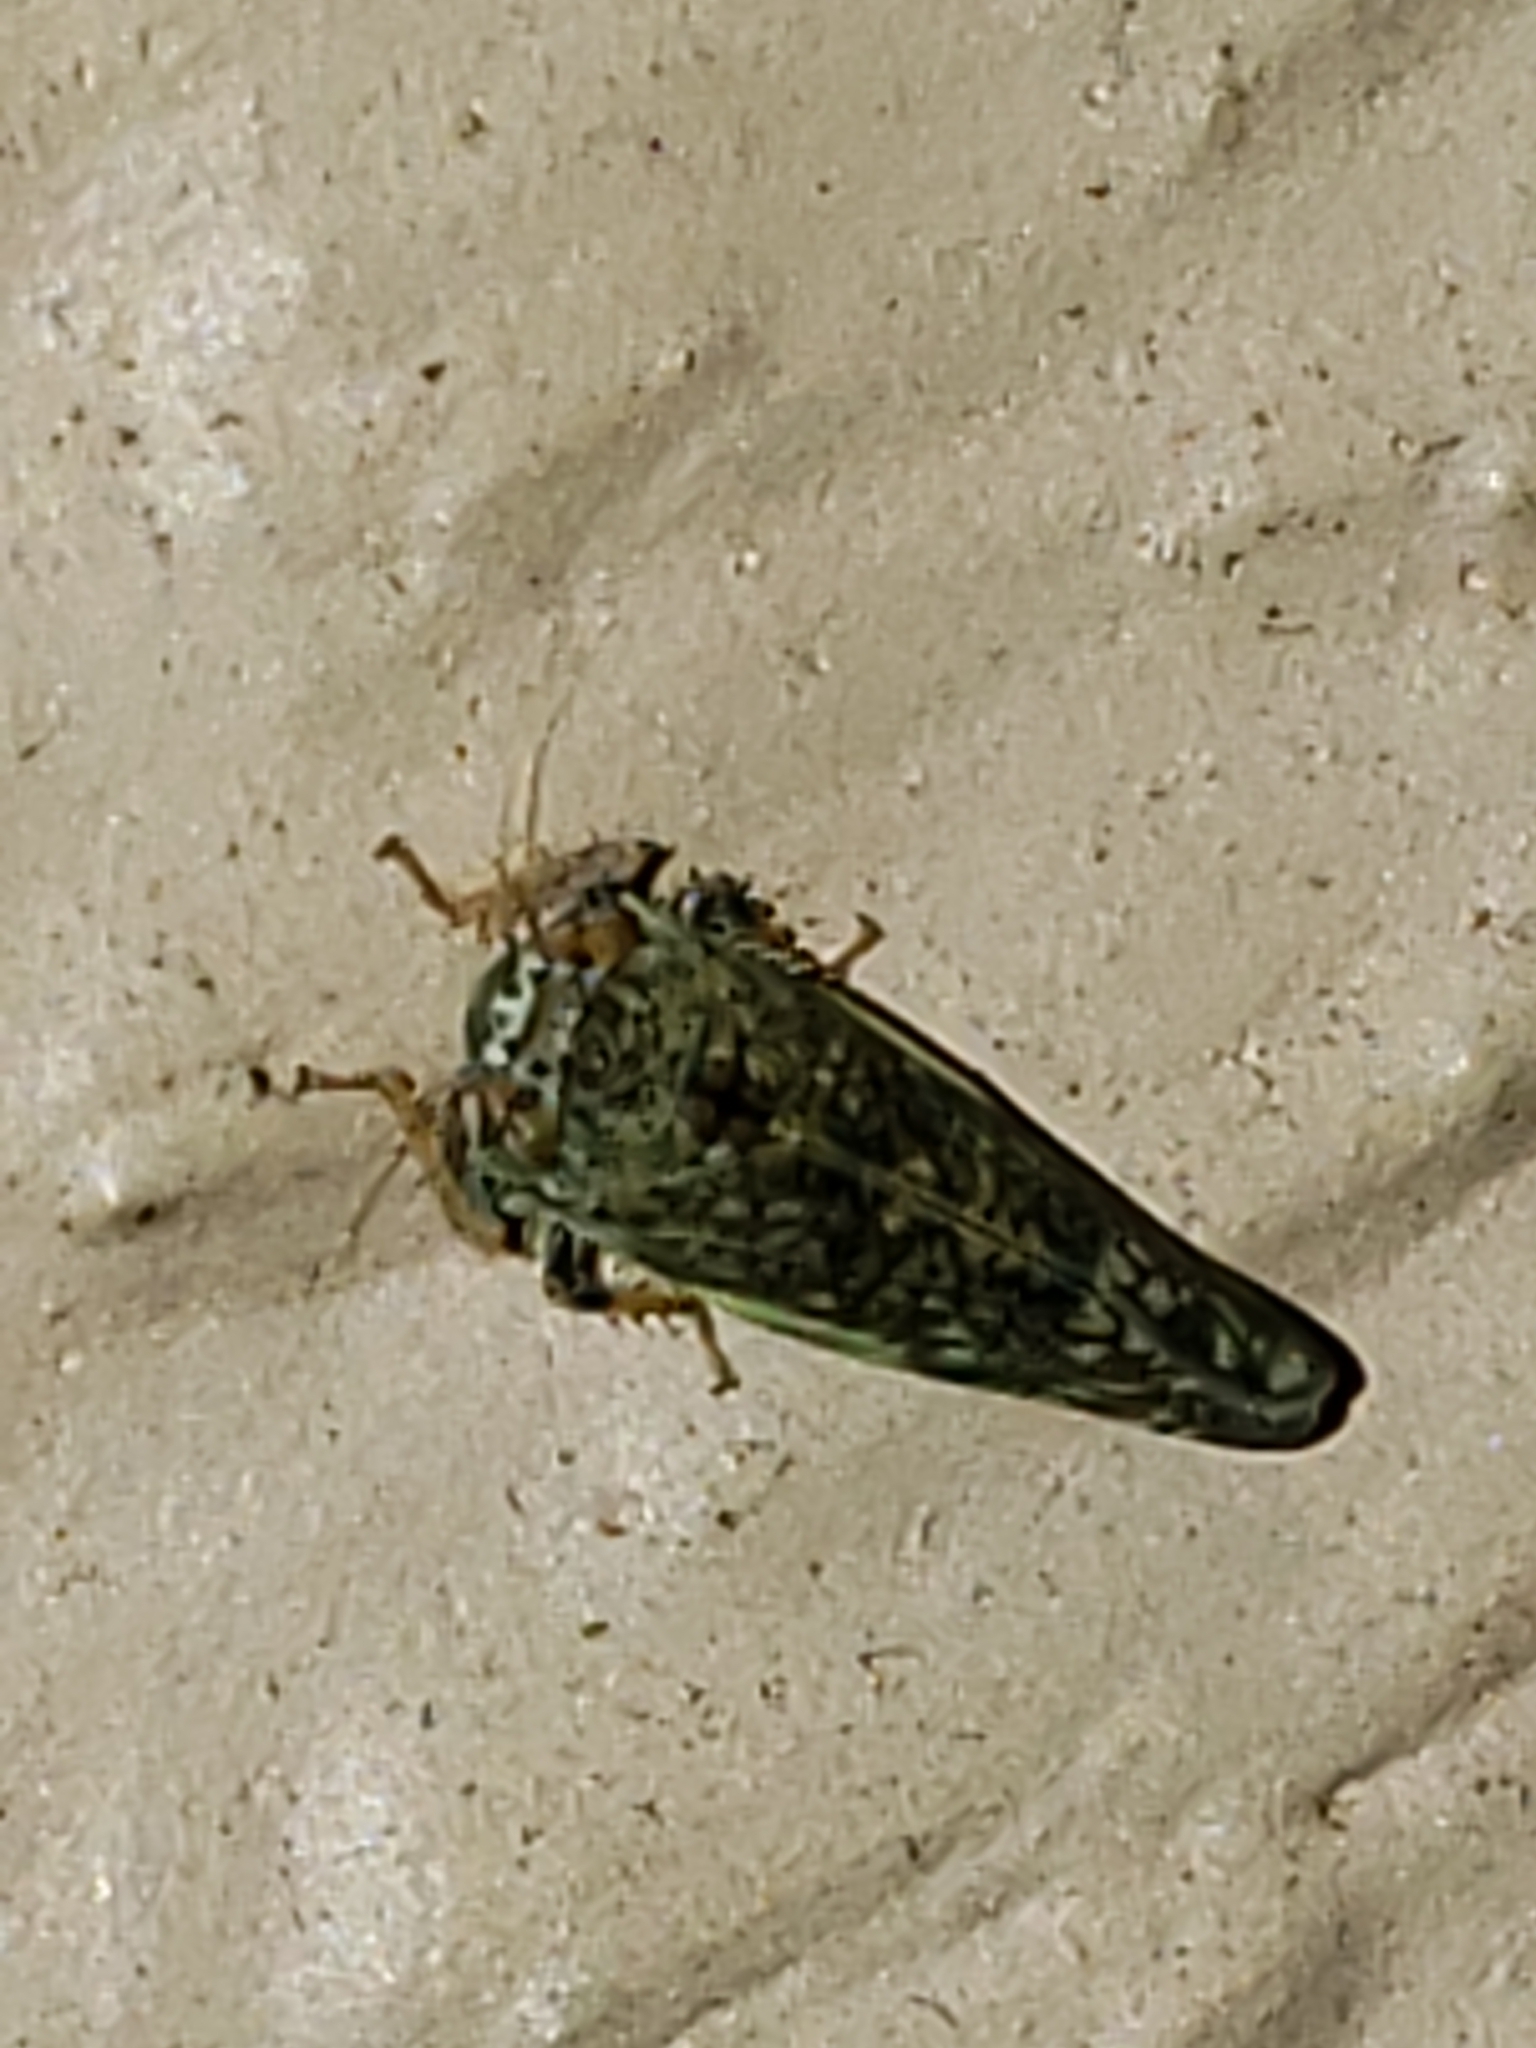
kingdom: Animalia
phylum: Arthropoda
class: Insecta
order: Hemiptera
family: Cicadellidae
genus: Orientus
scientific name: Orientus ishidae
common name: Japanese leafhopper
